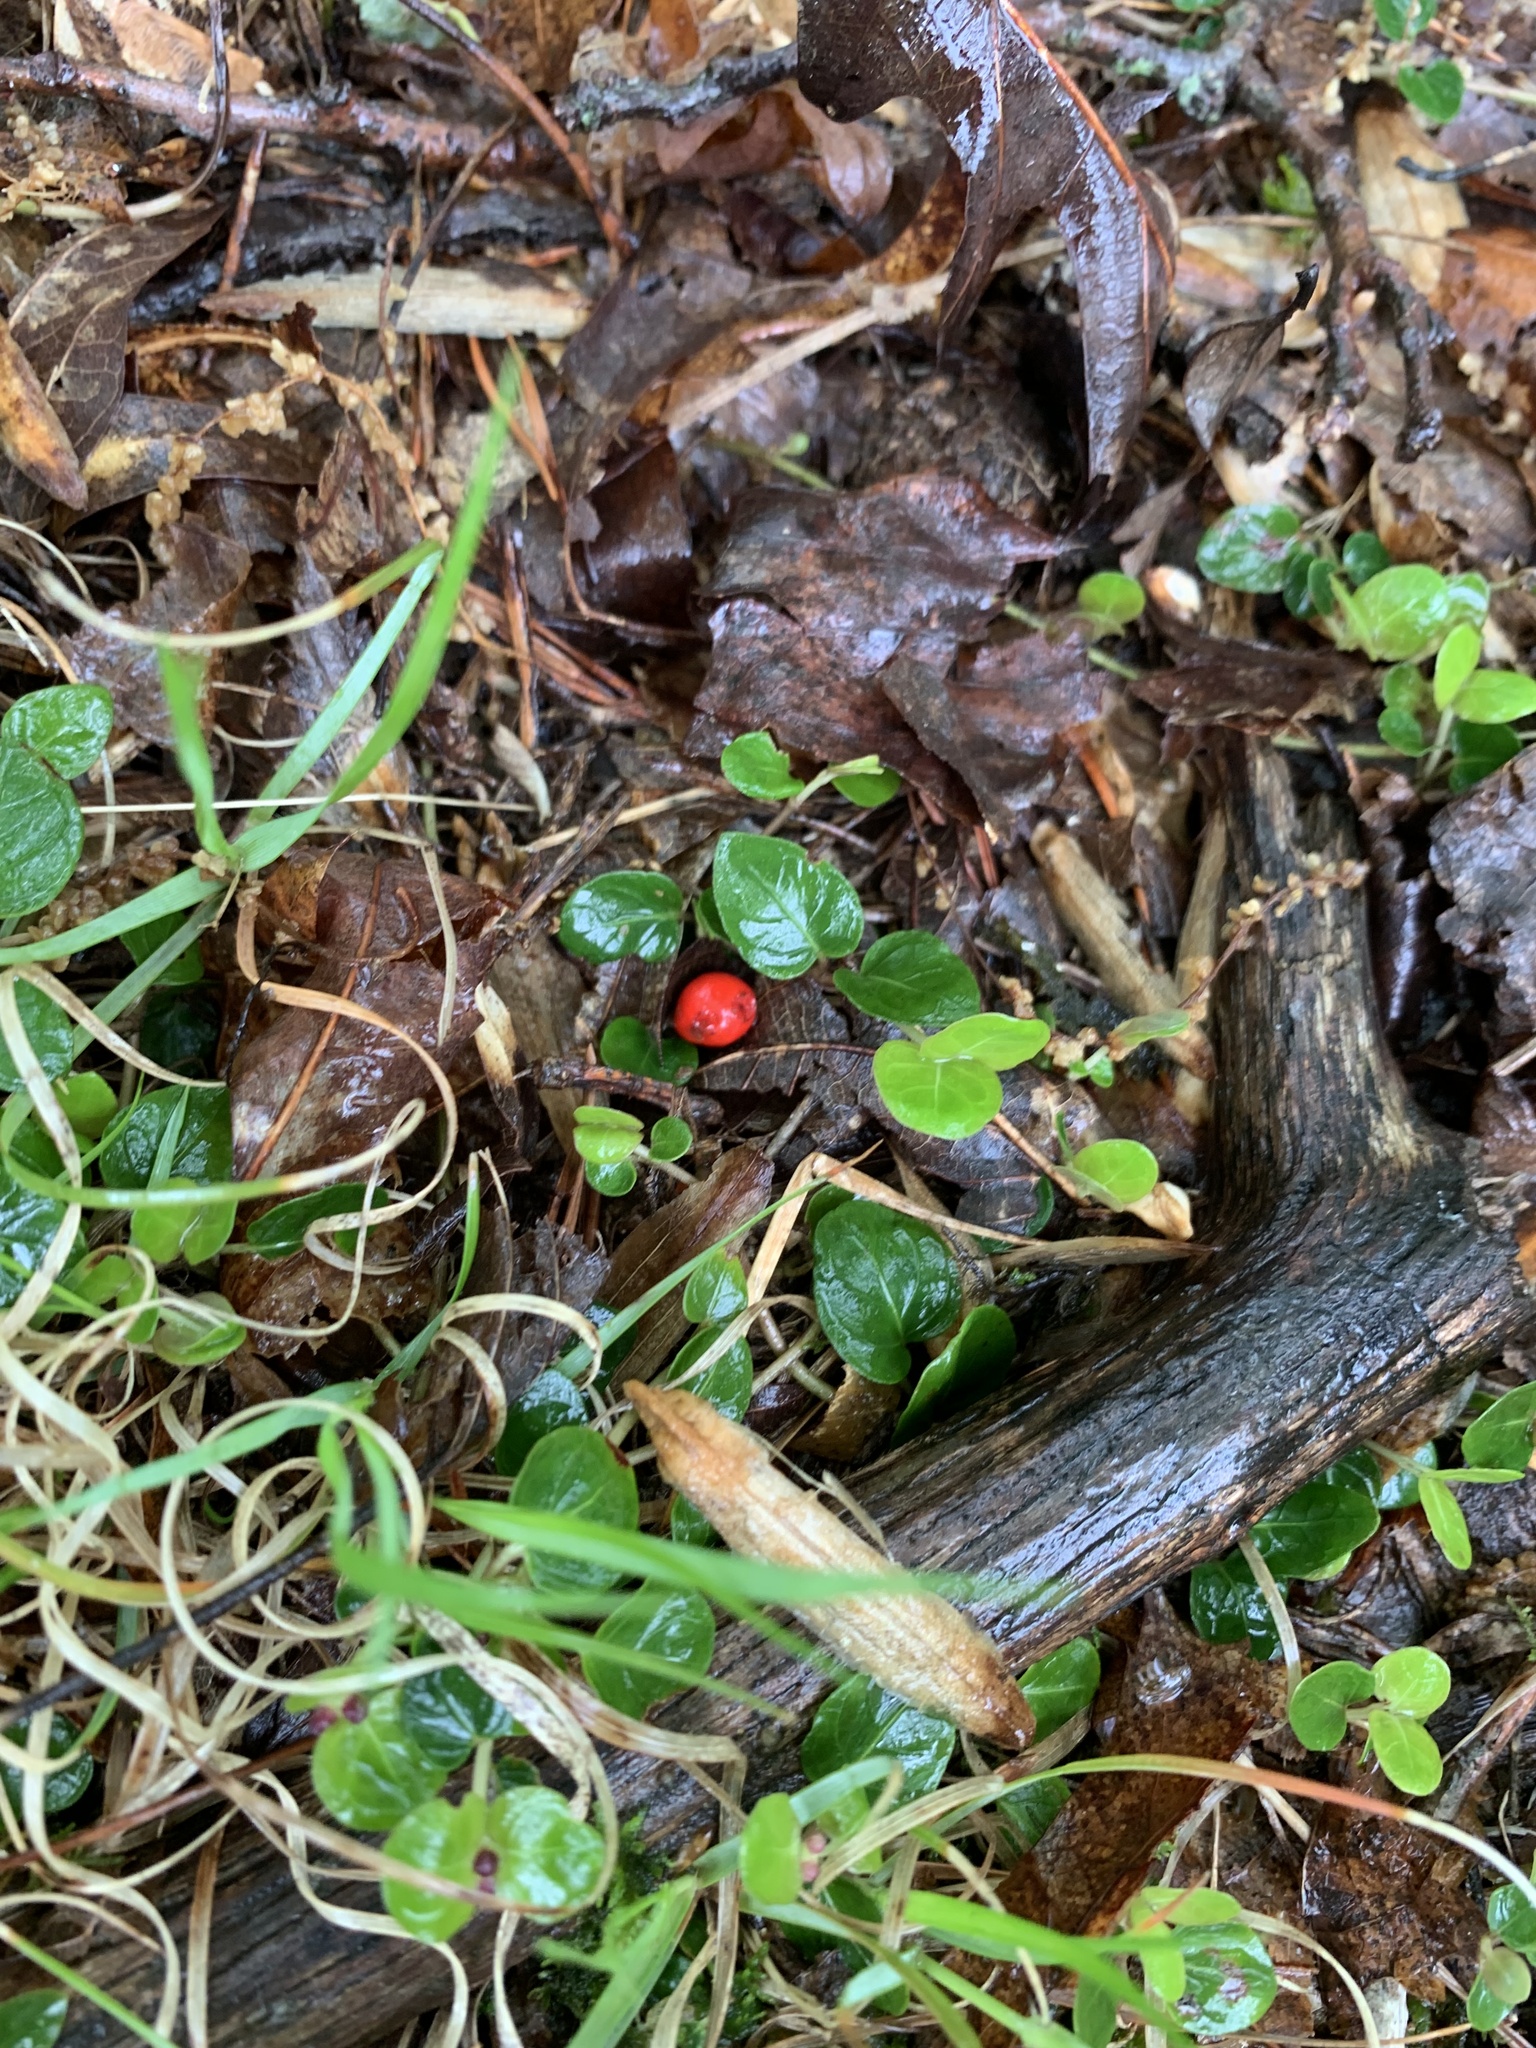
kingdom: Plantae
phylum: Tracheophyta
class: Magnoliopsida
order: Gentianales
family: Rubiaceae
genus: Mitchella
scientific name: Mitchella repens
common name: Partridge-berry
